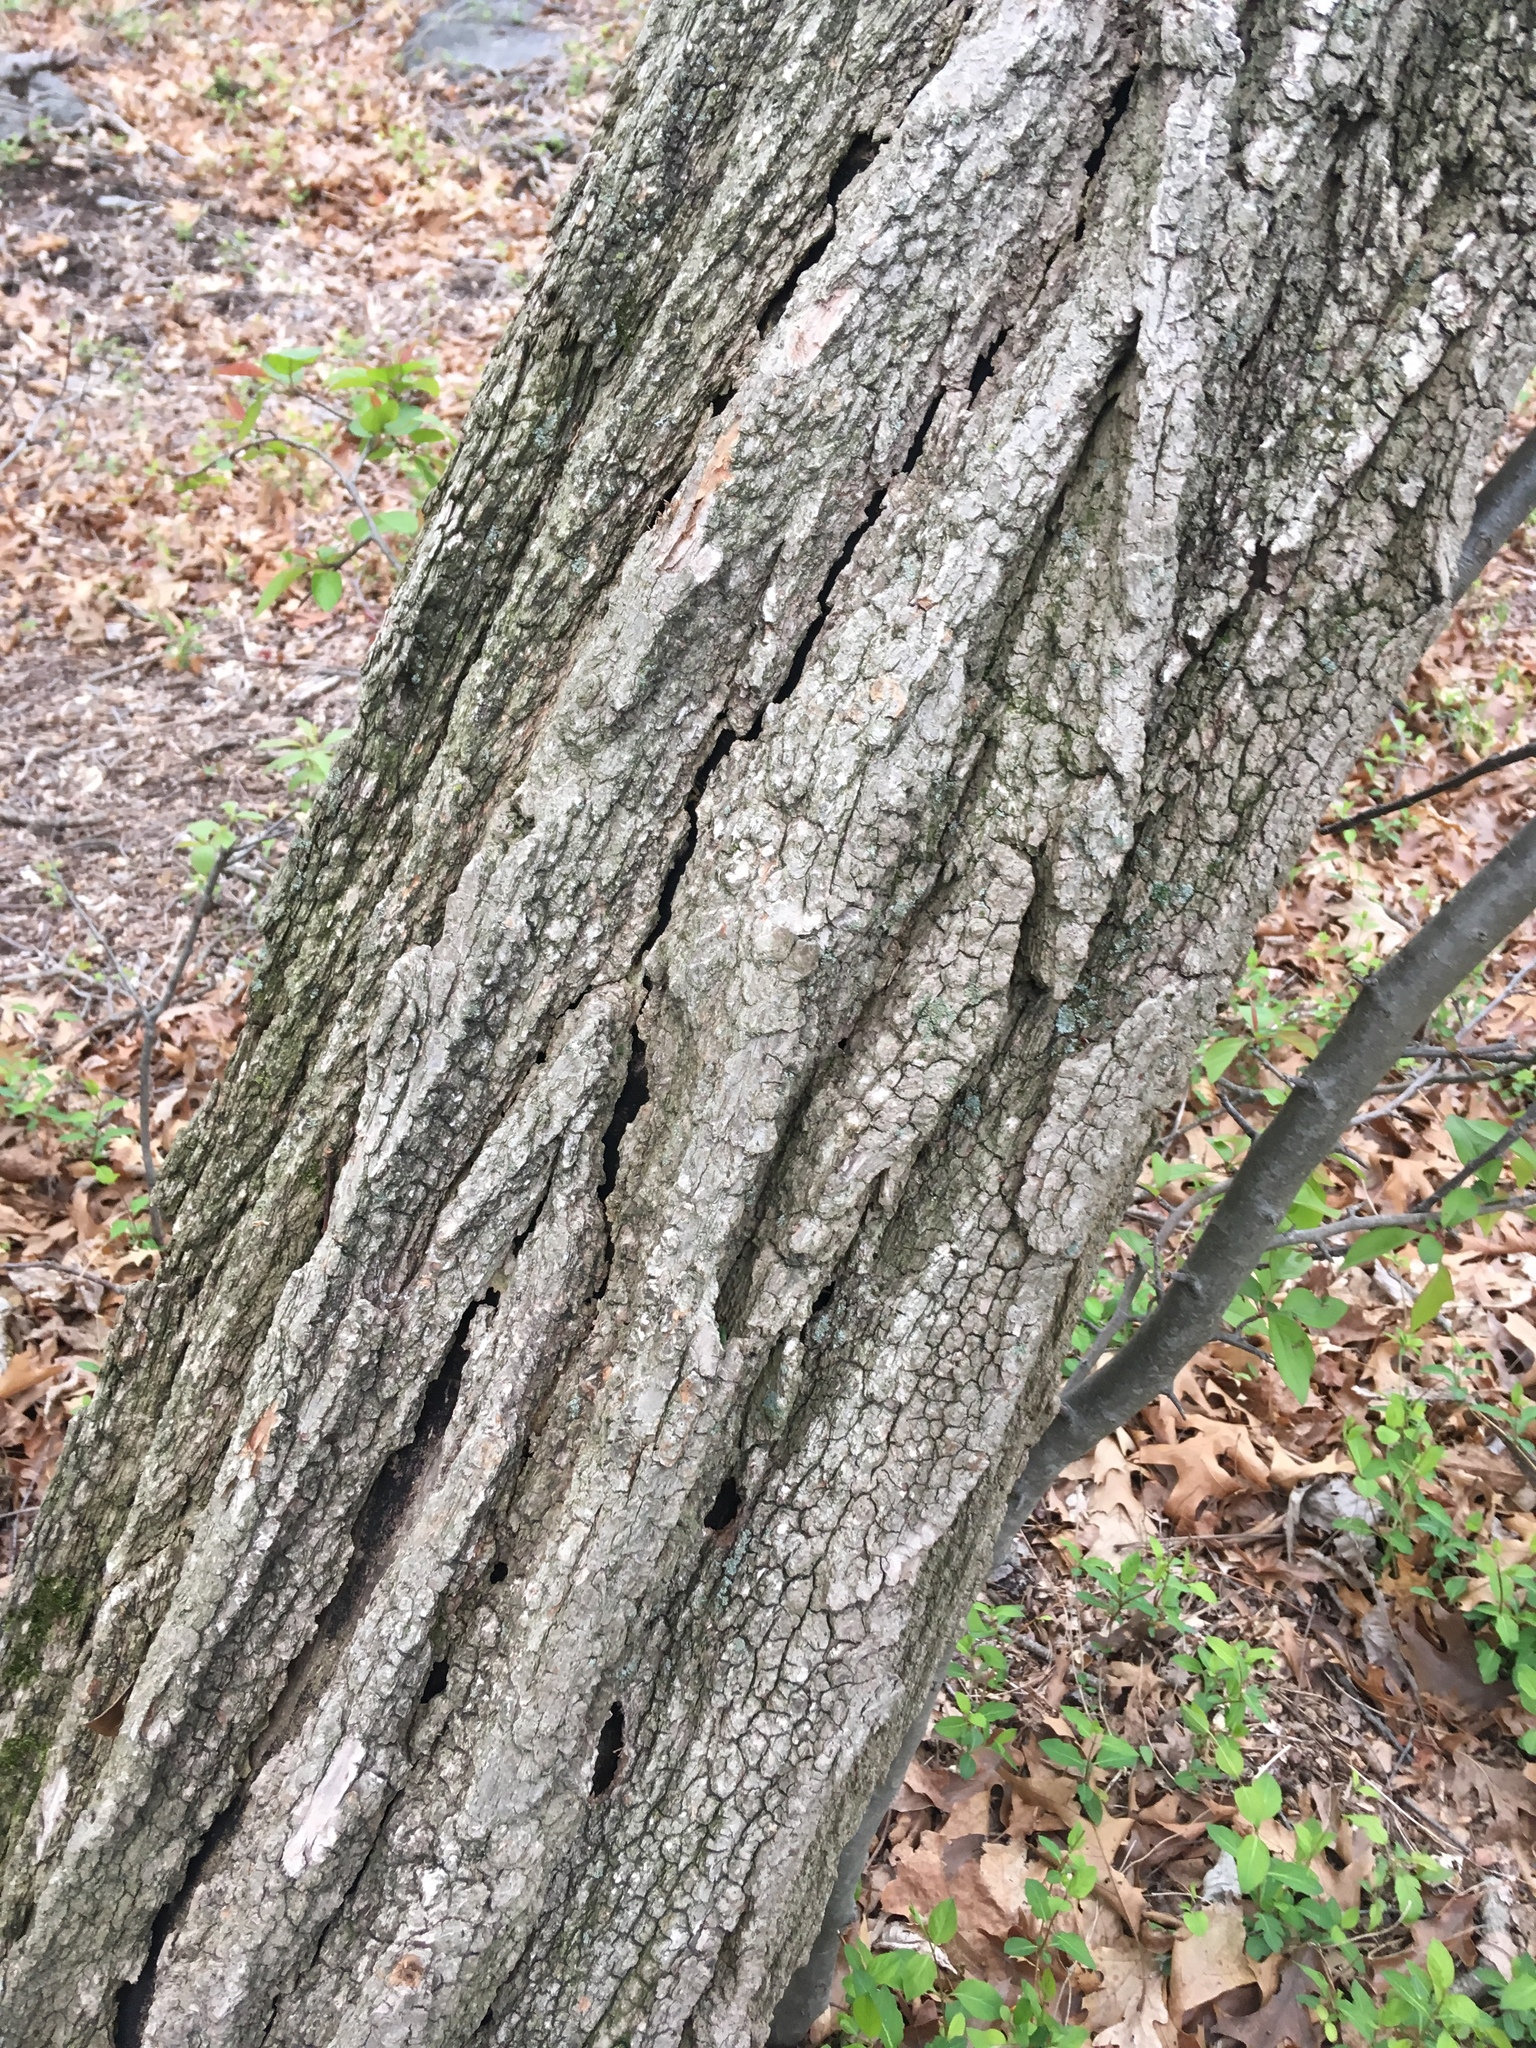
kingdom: Plantae
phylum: Tracheophyta
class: Magnoliopsida
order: Fabales
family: Fabaceae
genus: Robinia
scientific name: Robinia pseudoacacia
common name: Black locust
